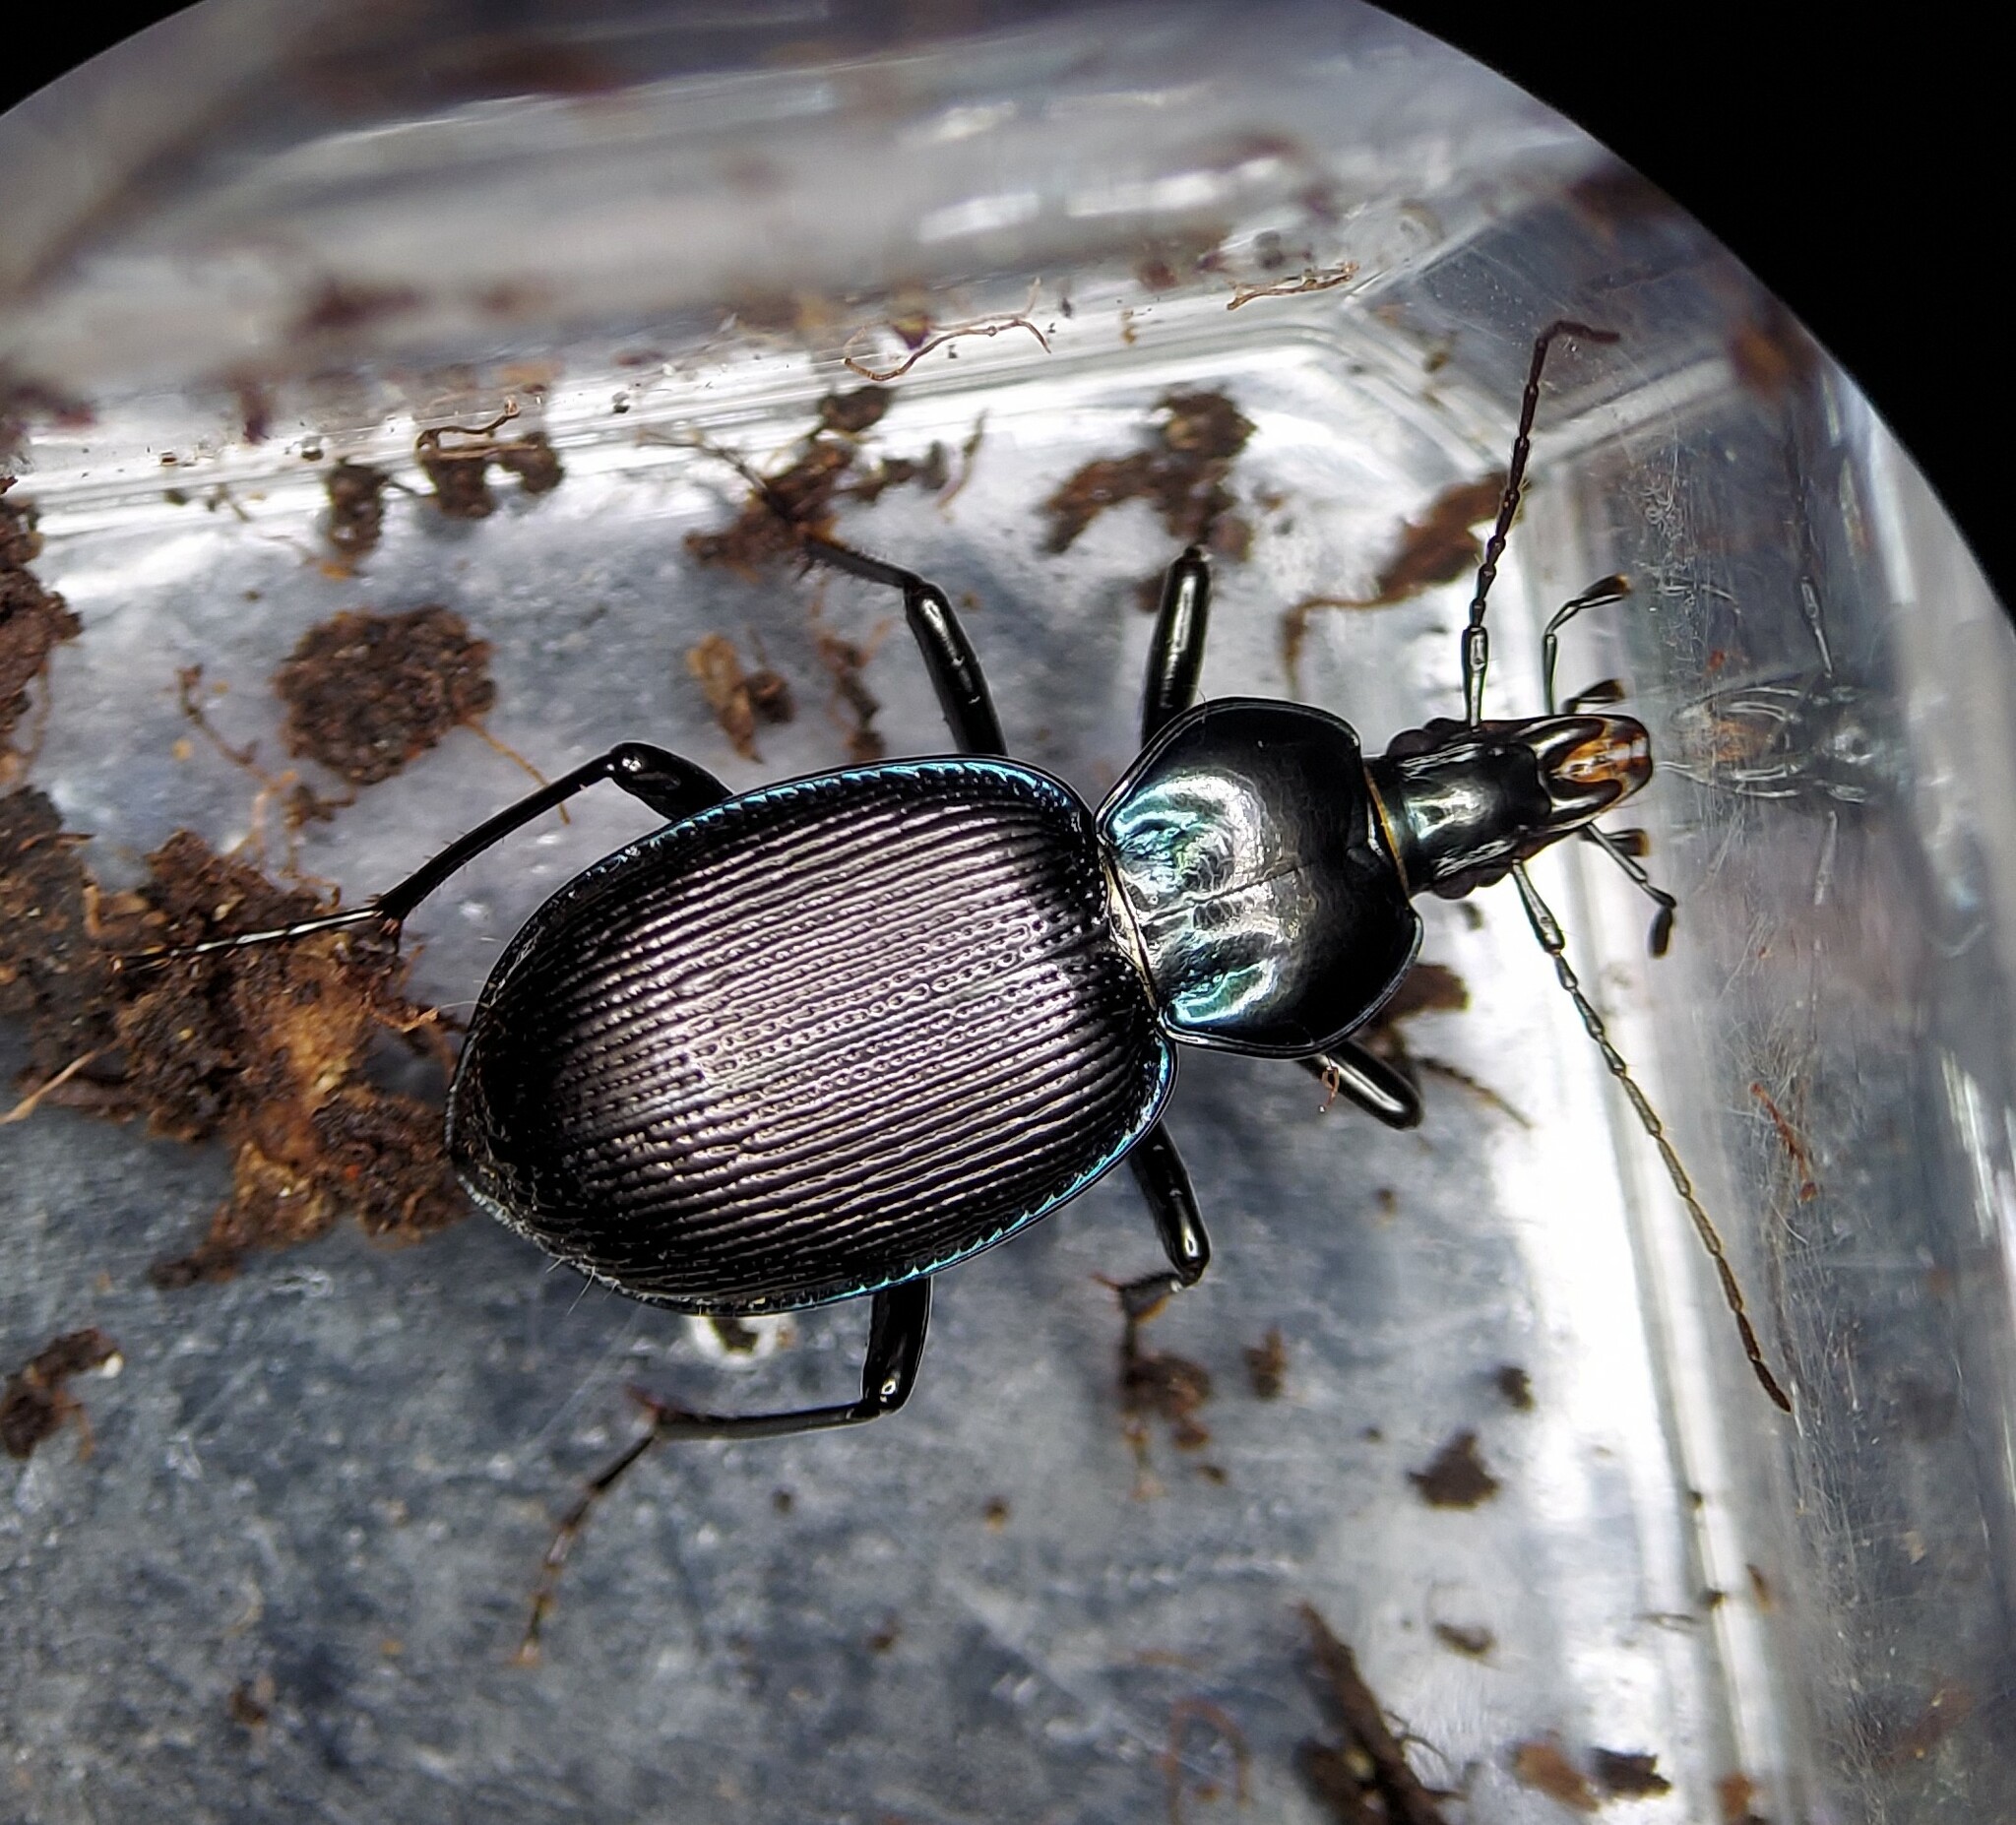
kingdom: Animalia
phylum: Arthropoda
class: Insecta
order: Coleoptera
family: Carabidae
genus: Sphaeroderus
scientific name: Sphaeroderus canadensis
